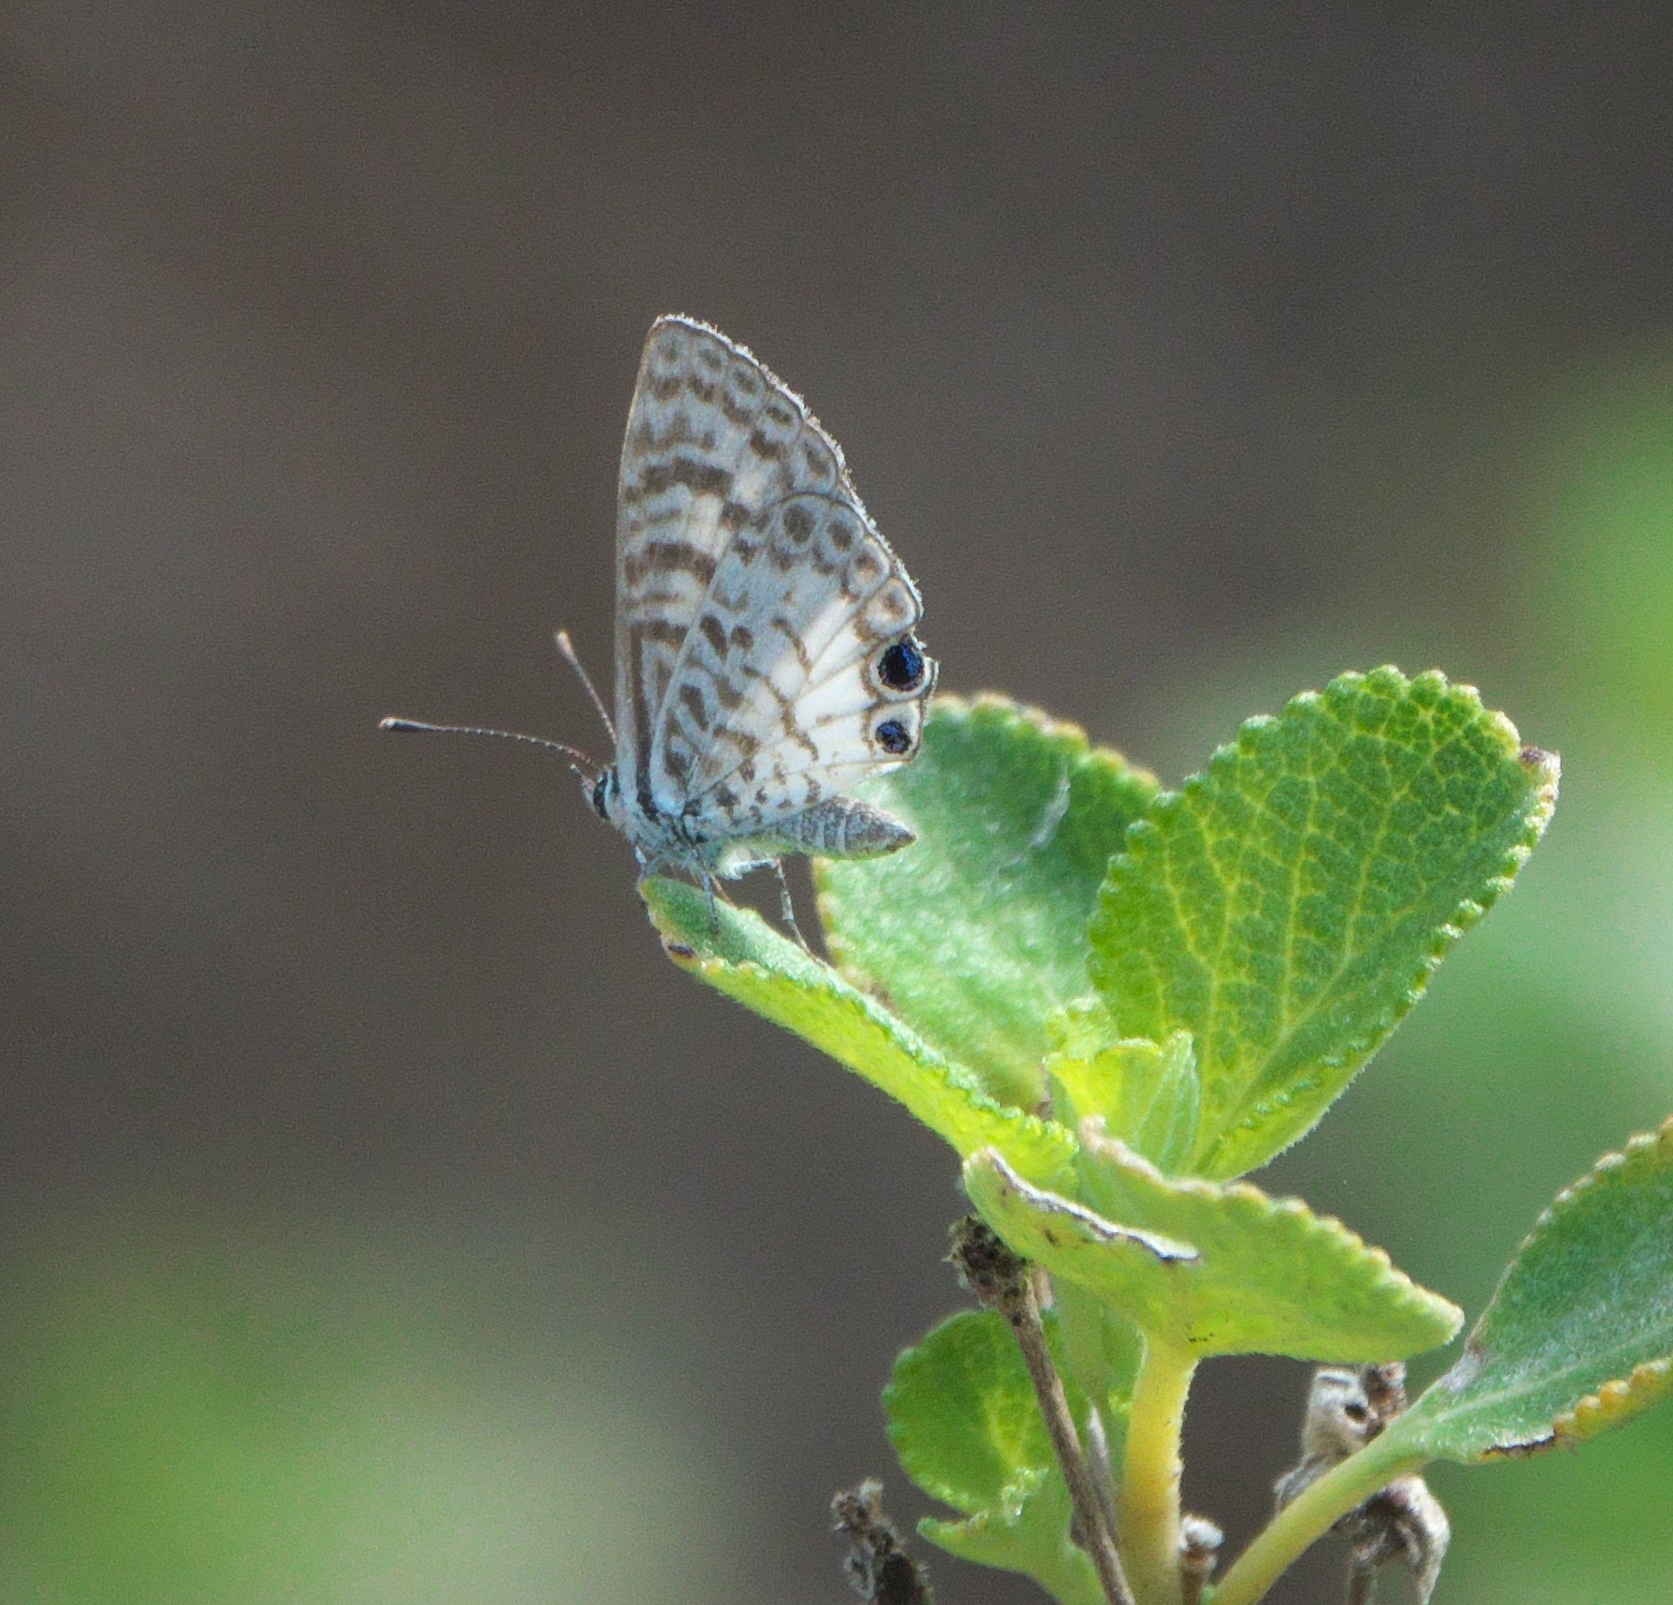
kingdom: Animalia
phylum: Arthropoda
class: Insecta
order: Lepidoptera
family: Lycaenidae
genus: Leptotes
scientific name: Leptotes cassius
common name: Cassius blue
